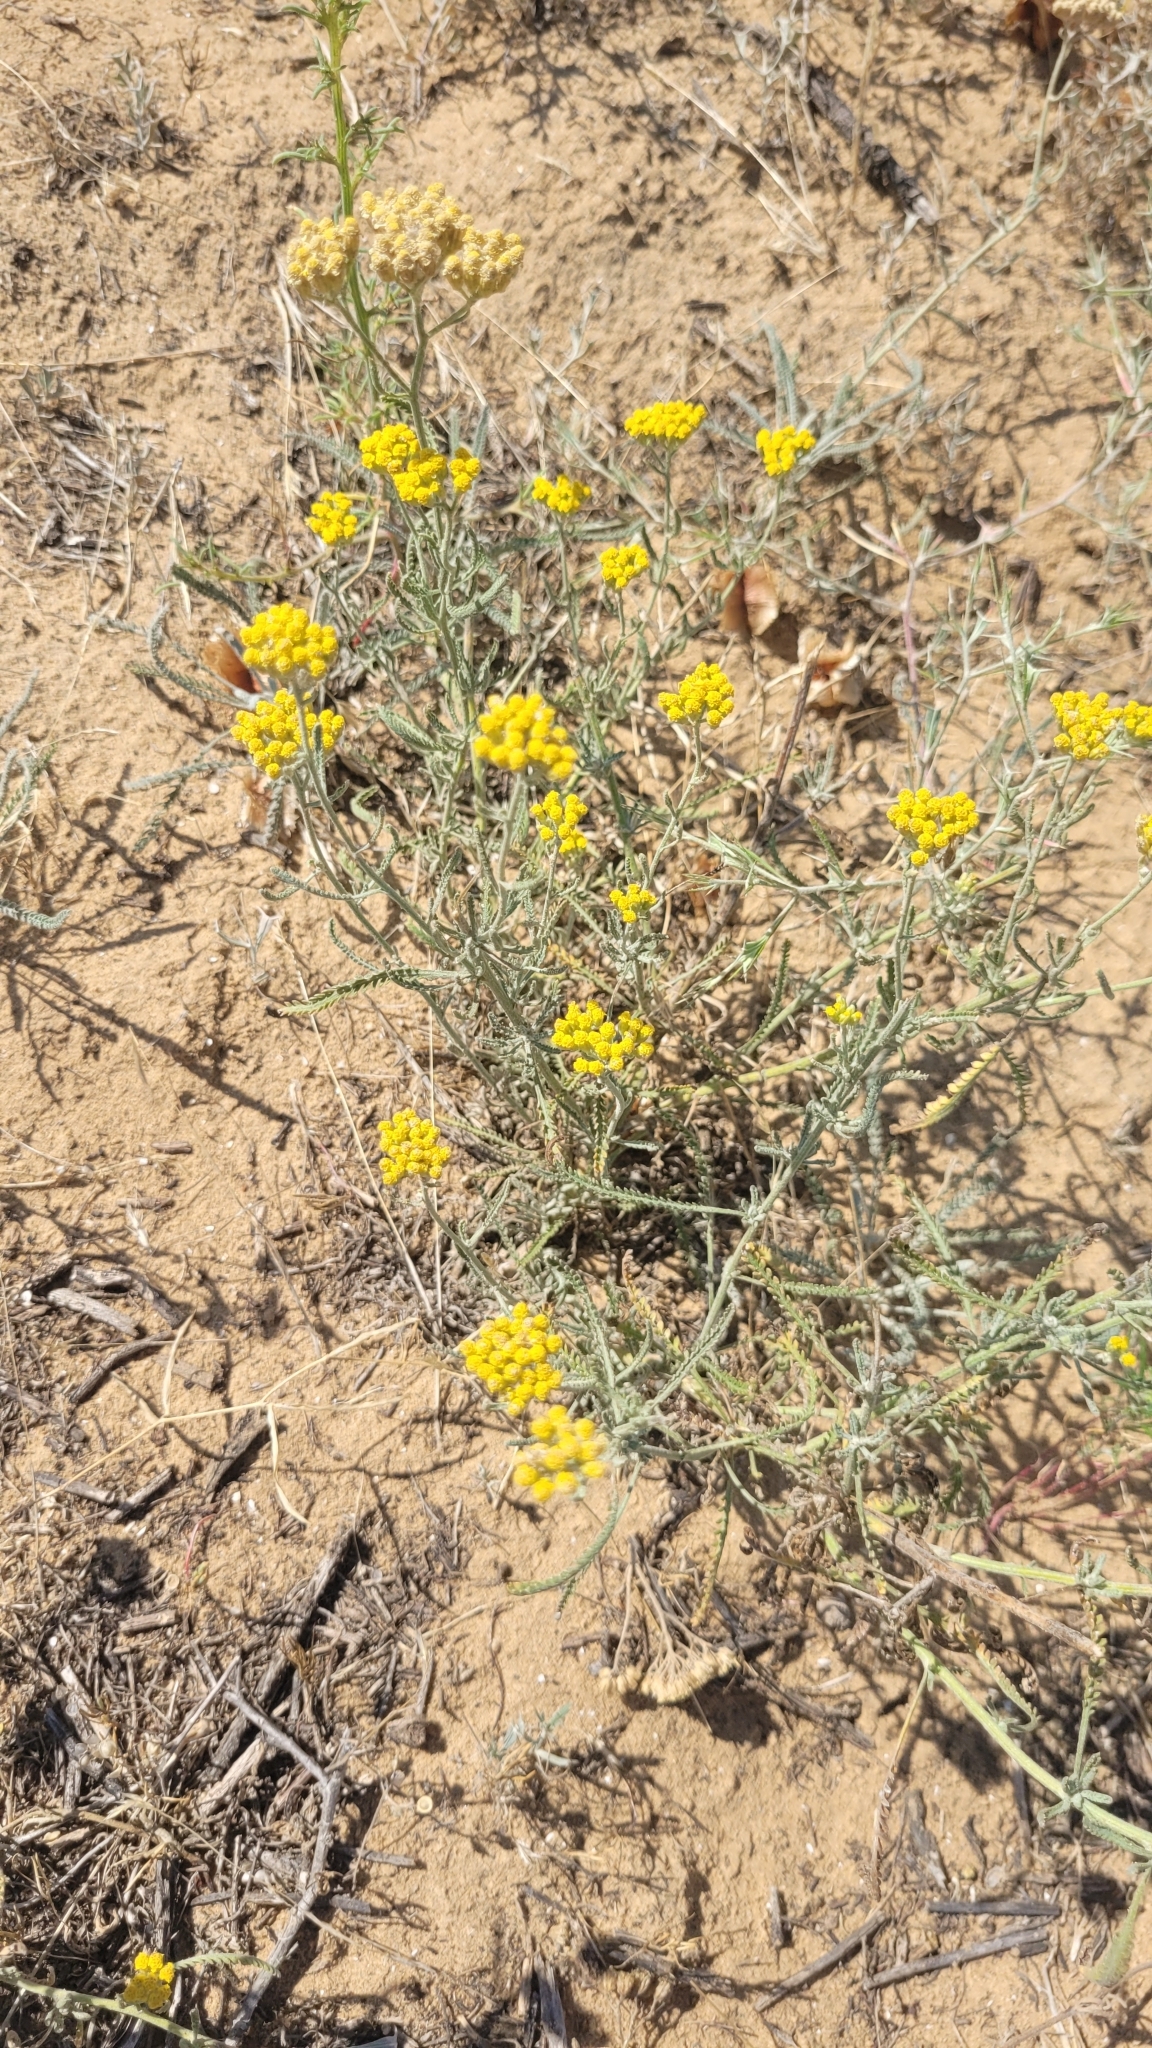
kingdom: Plantae
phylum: Tracheophyta
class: Magnoliopsida
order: Asterales
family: Asteraceae
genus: Achillea
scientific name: Achillea micrantha
